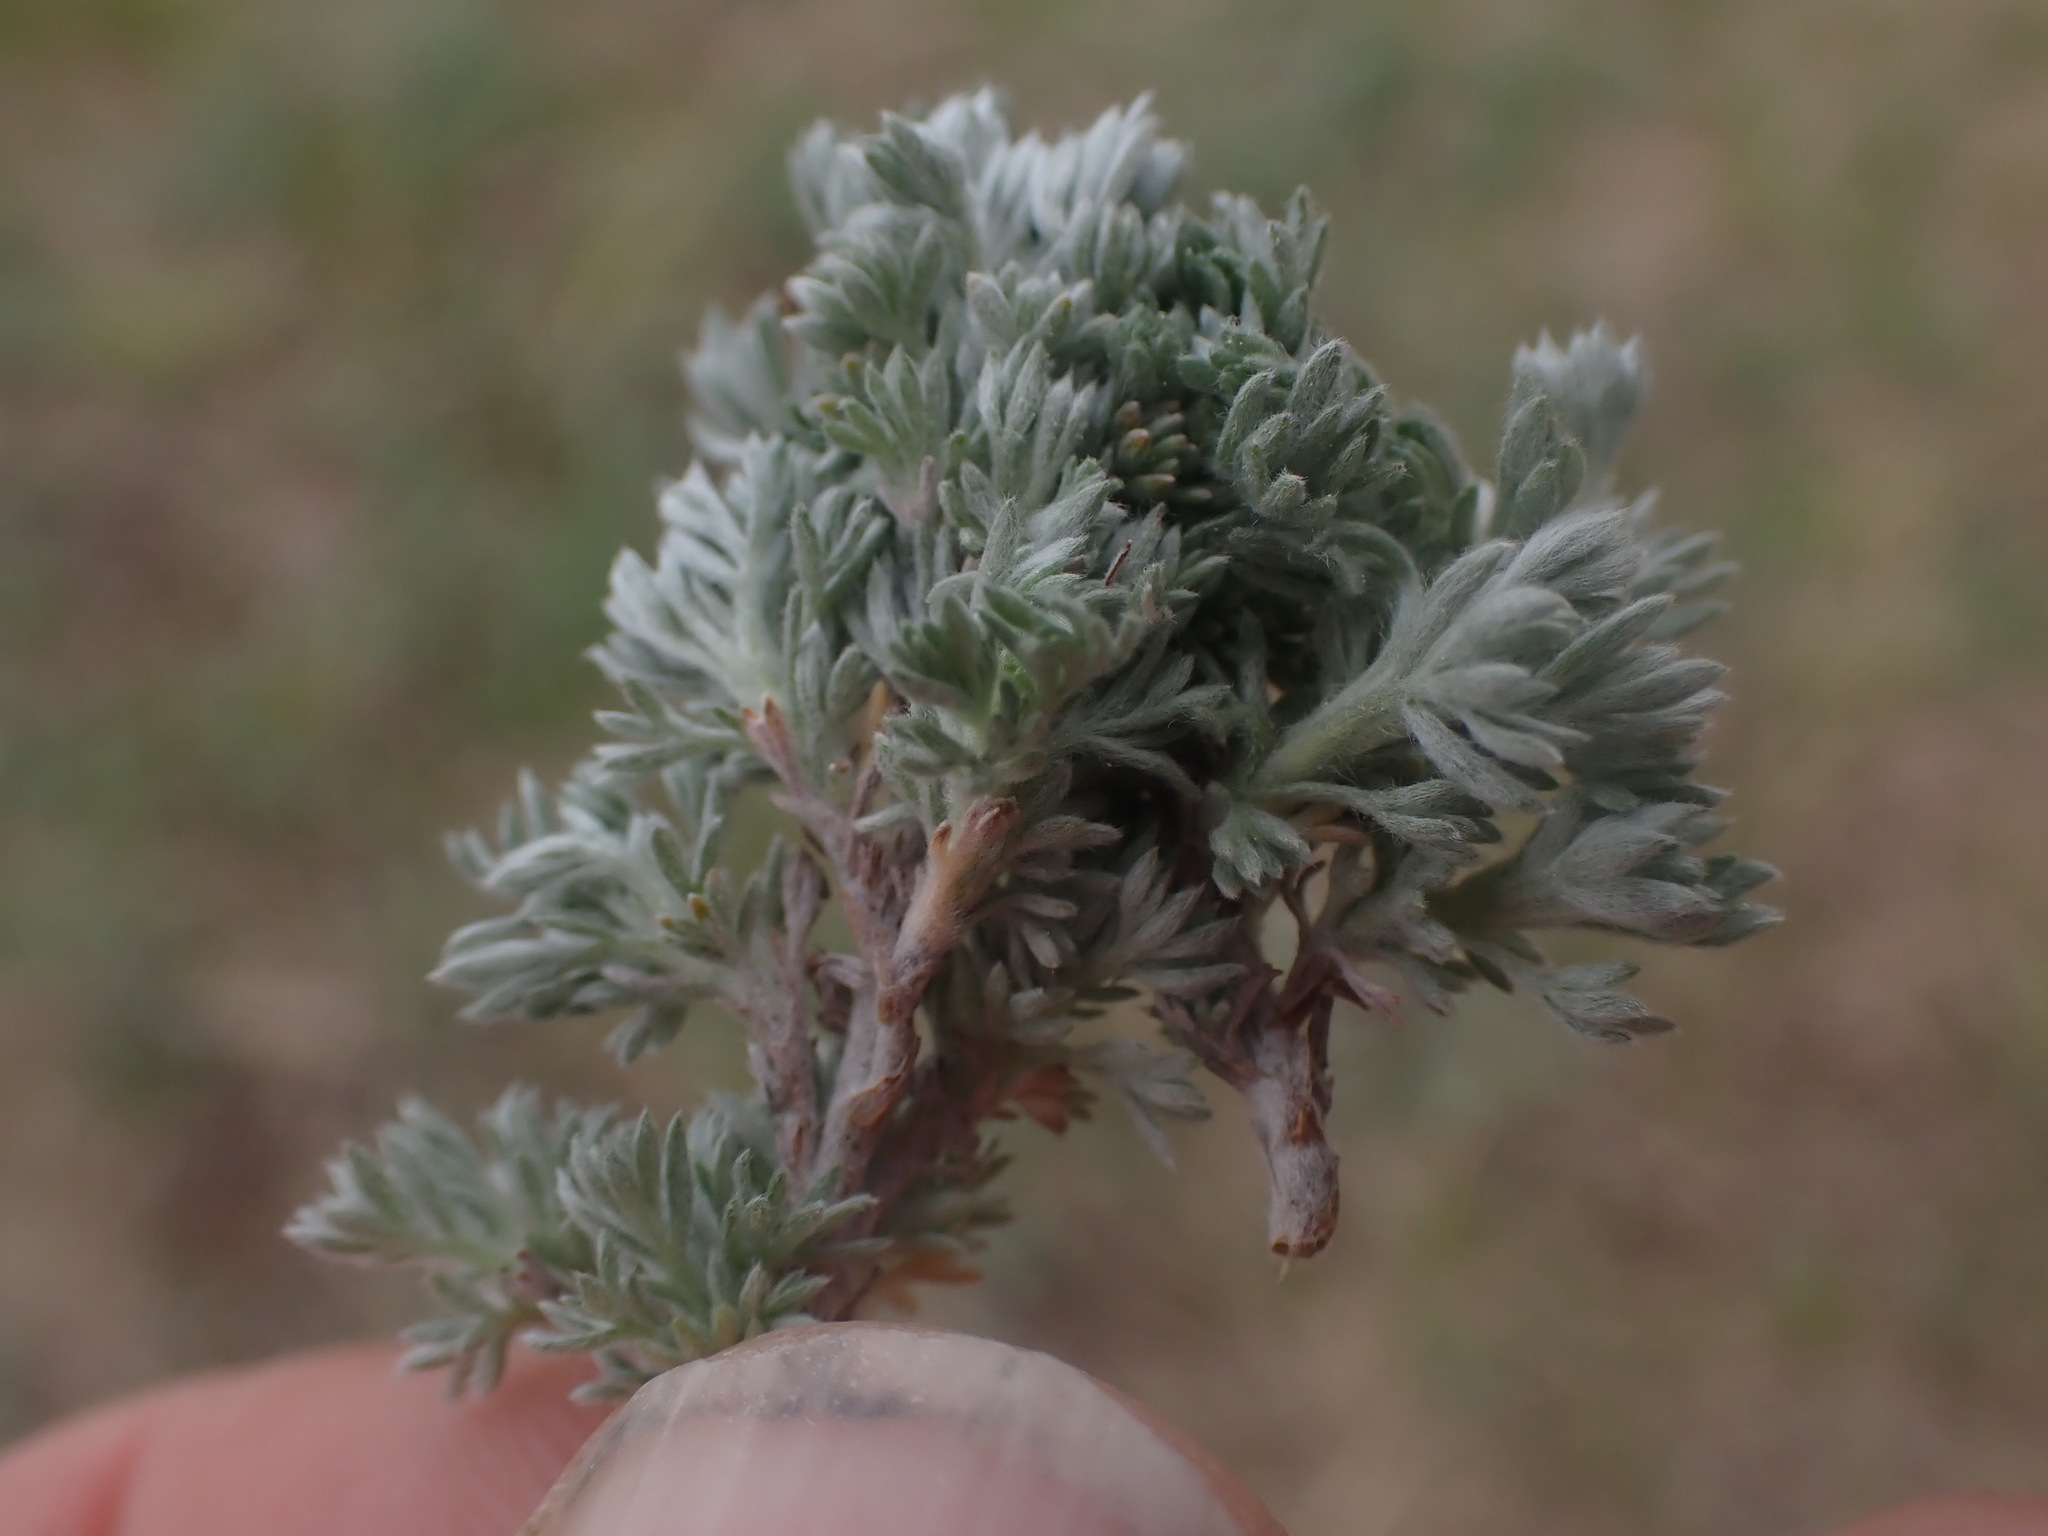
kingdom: Plantae
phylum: Tracheophyta
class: Magnoliopsida
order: Asterales
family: Asteraceae
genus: Artemisia
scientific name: Artemisia frigida
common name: Prairie sagewort
